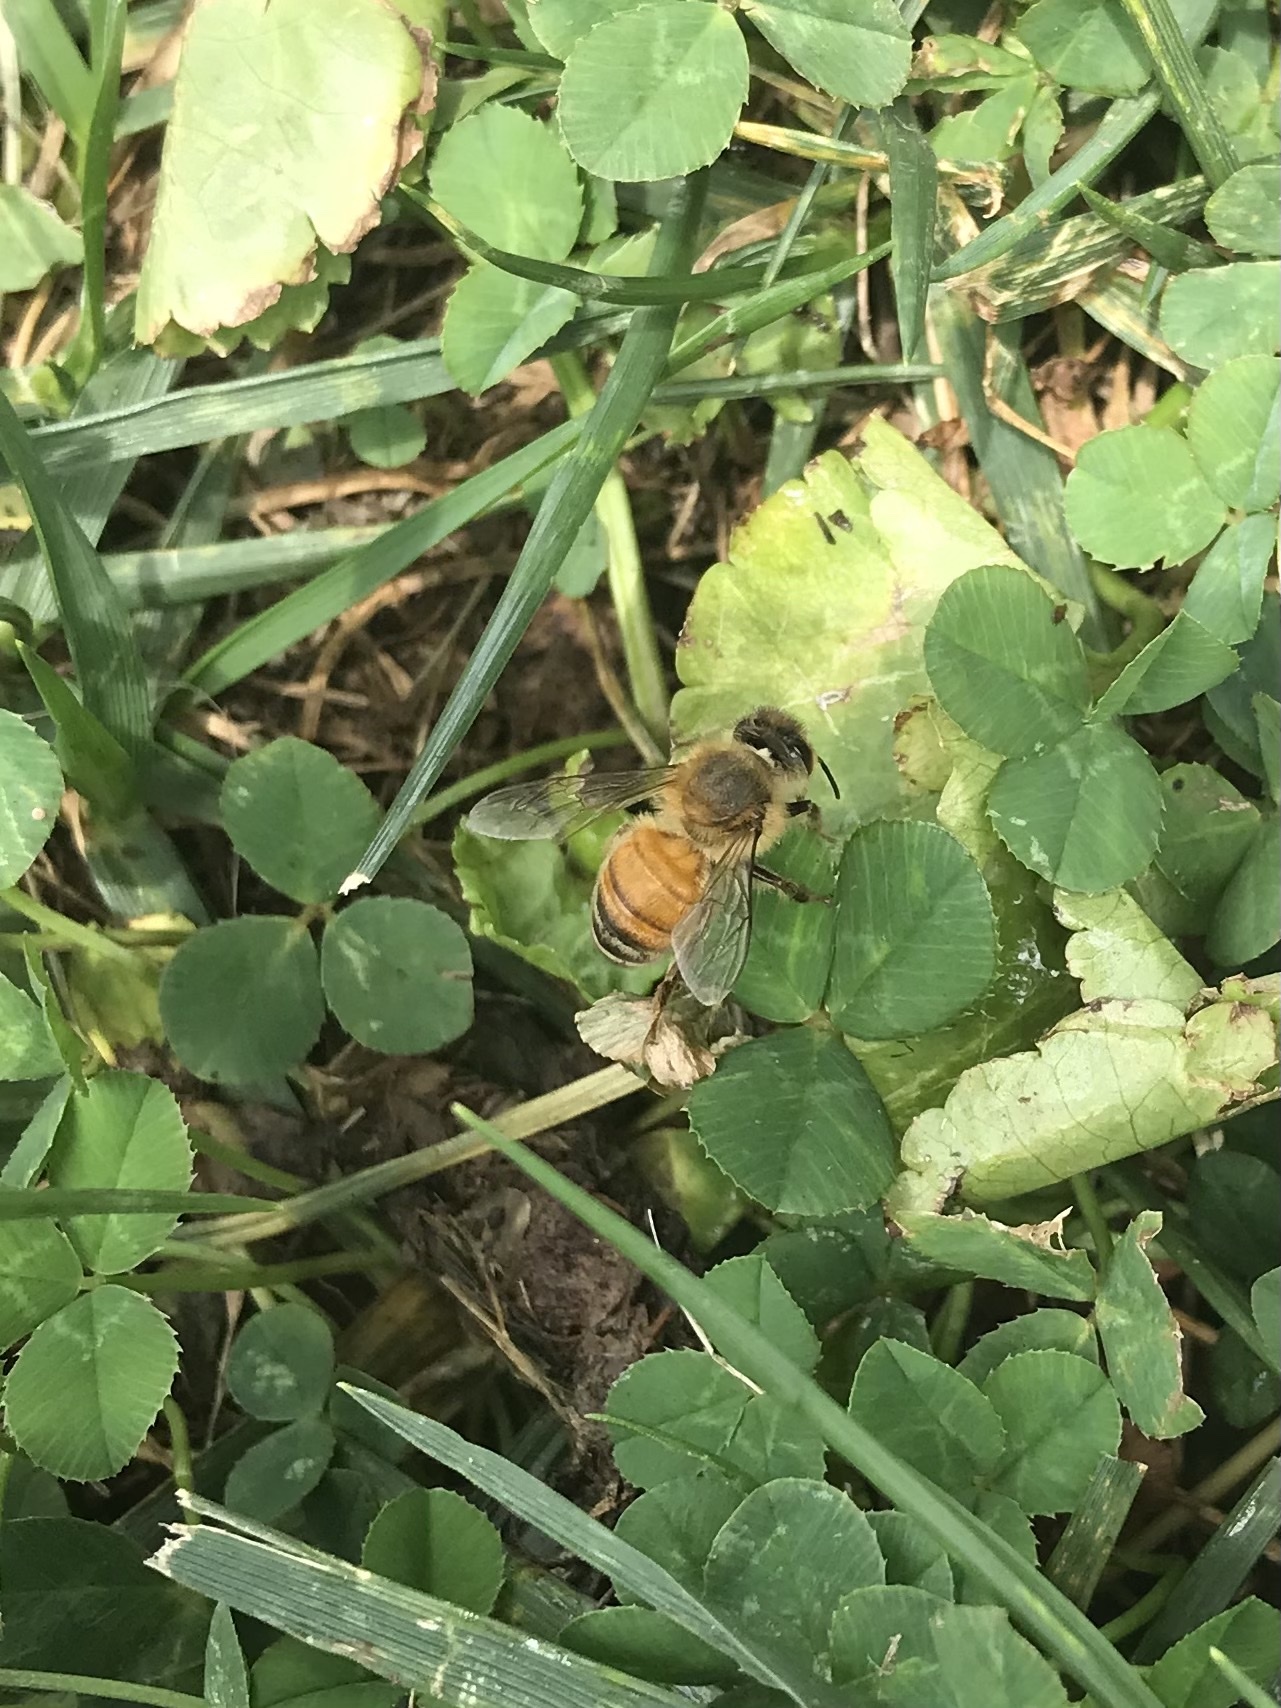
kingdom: Animalia
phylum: Arthropoda
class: Insecta
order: Hymenoptera
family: Apidae
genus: Apis
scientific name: Apis mellifera
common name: Honey bee
